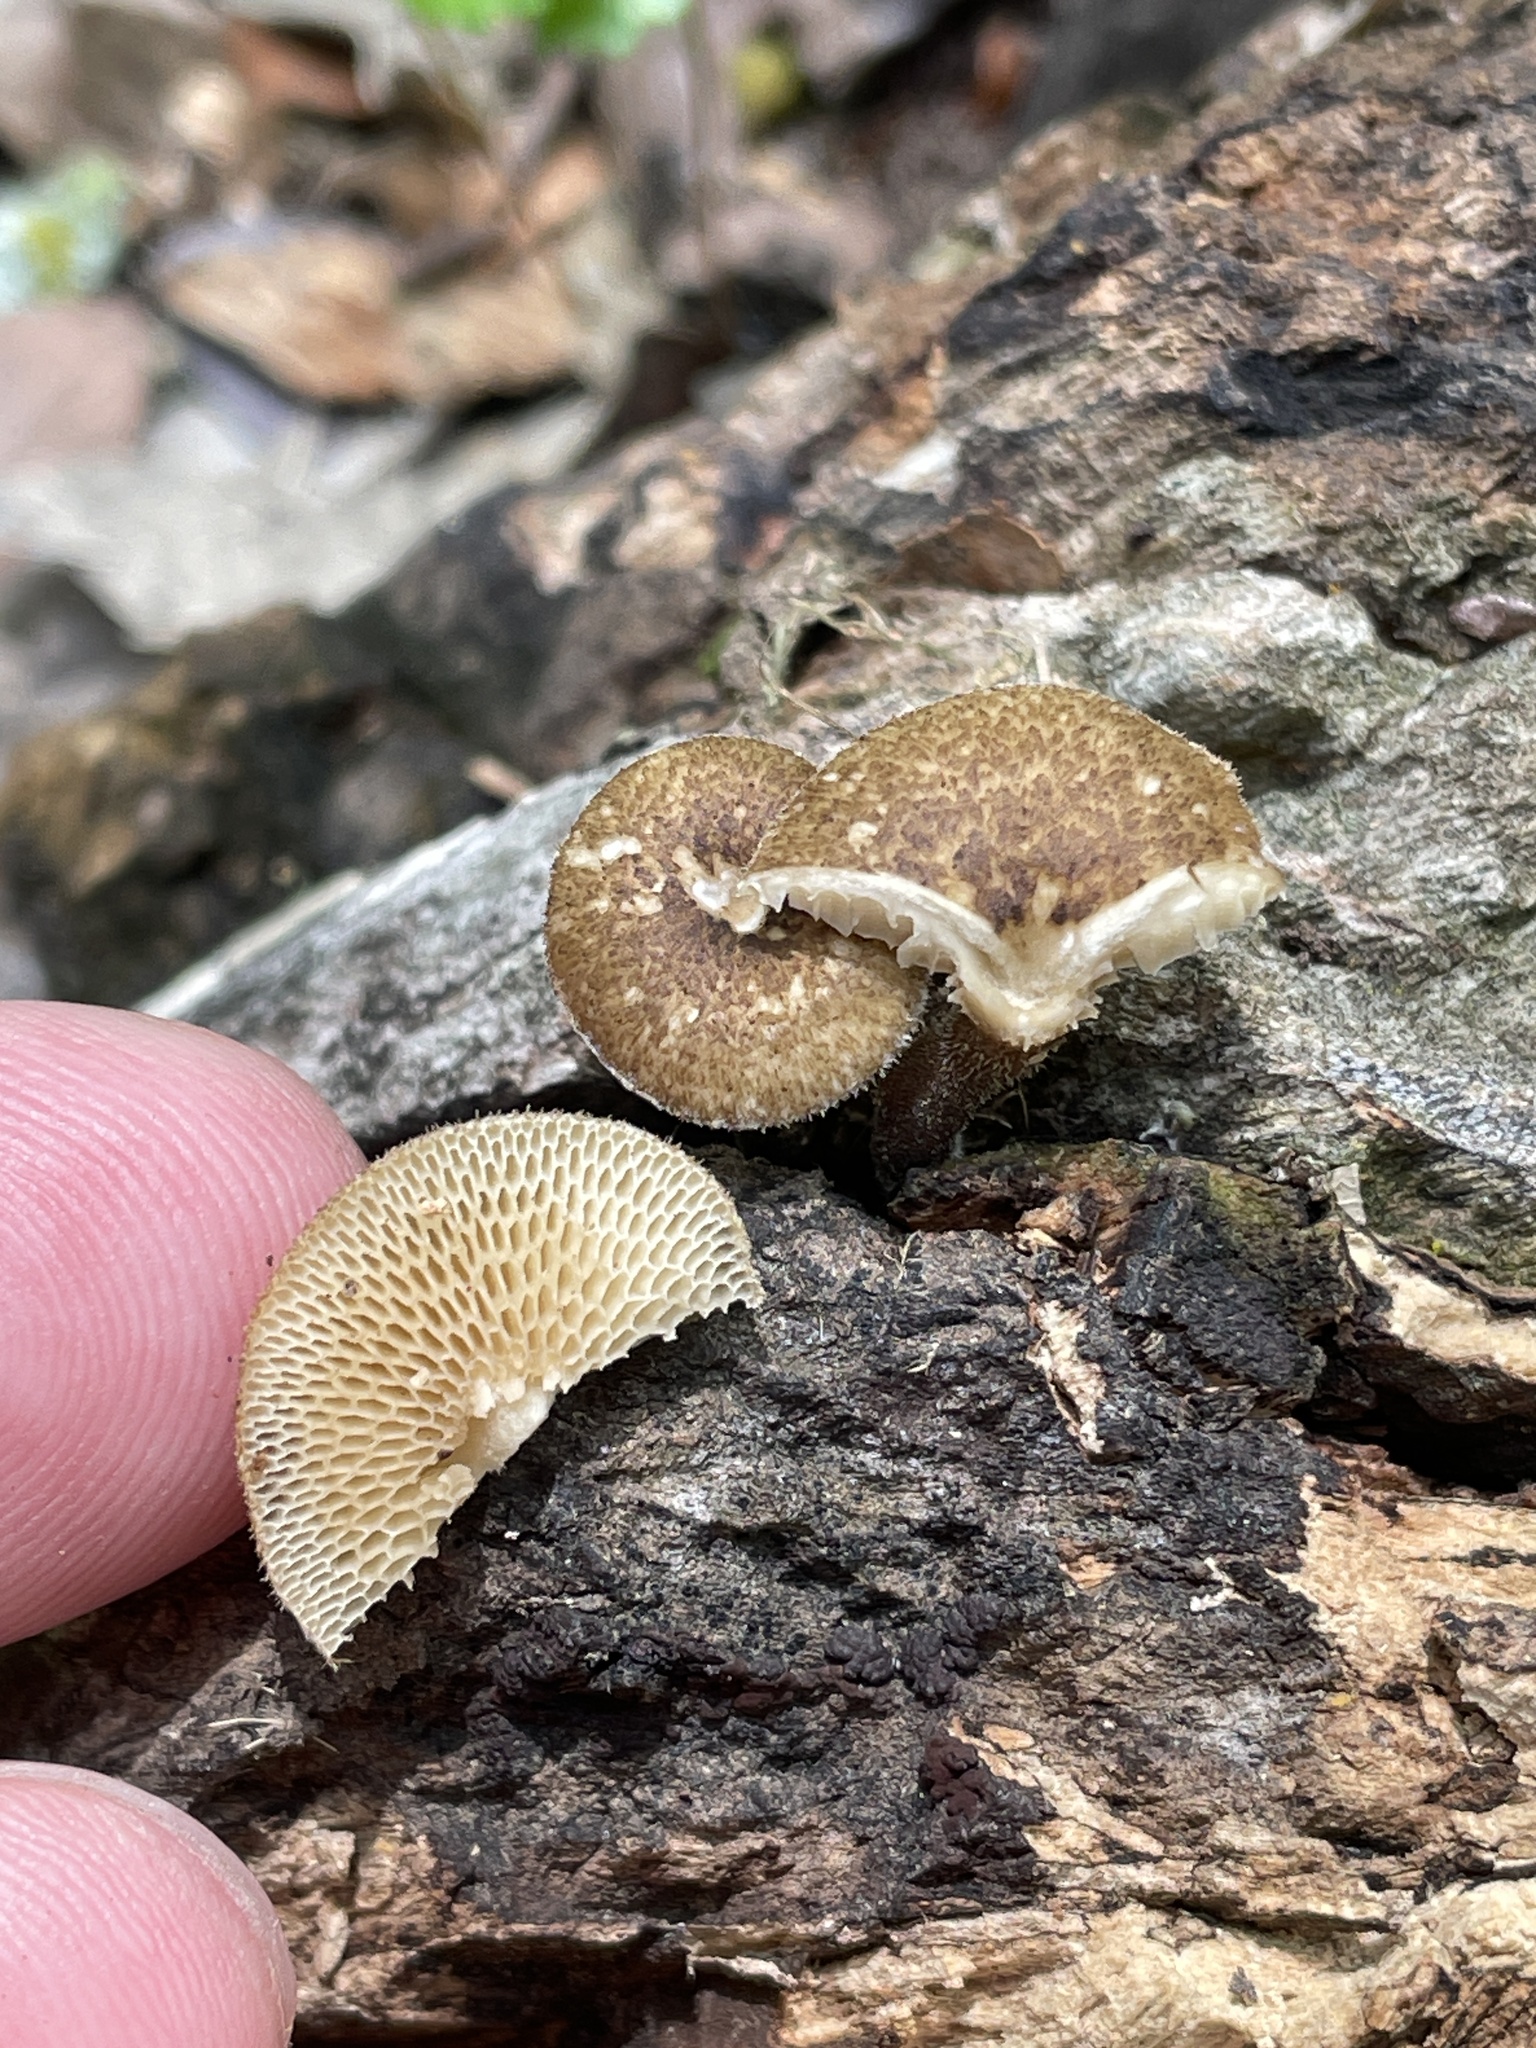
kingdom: Fungi
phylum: Basidiomycota
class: Agaricomycetes
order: Polyporales
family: Polyporaceae
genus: Lentinus
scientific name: Lentinus arcularius
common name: Spring polypore
